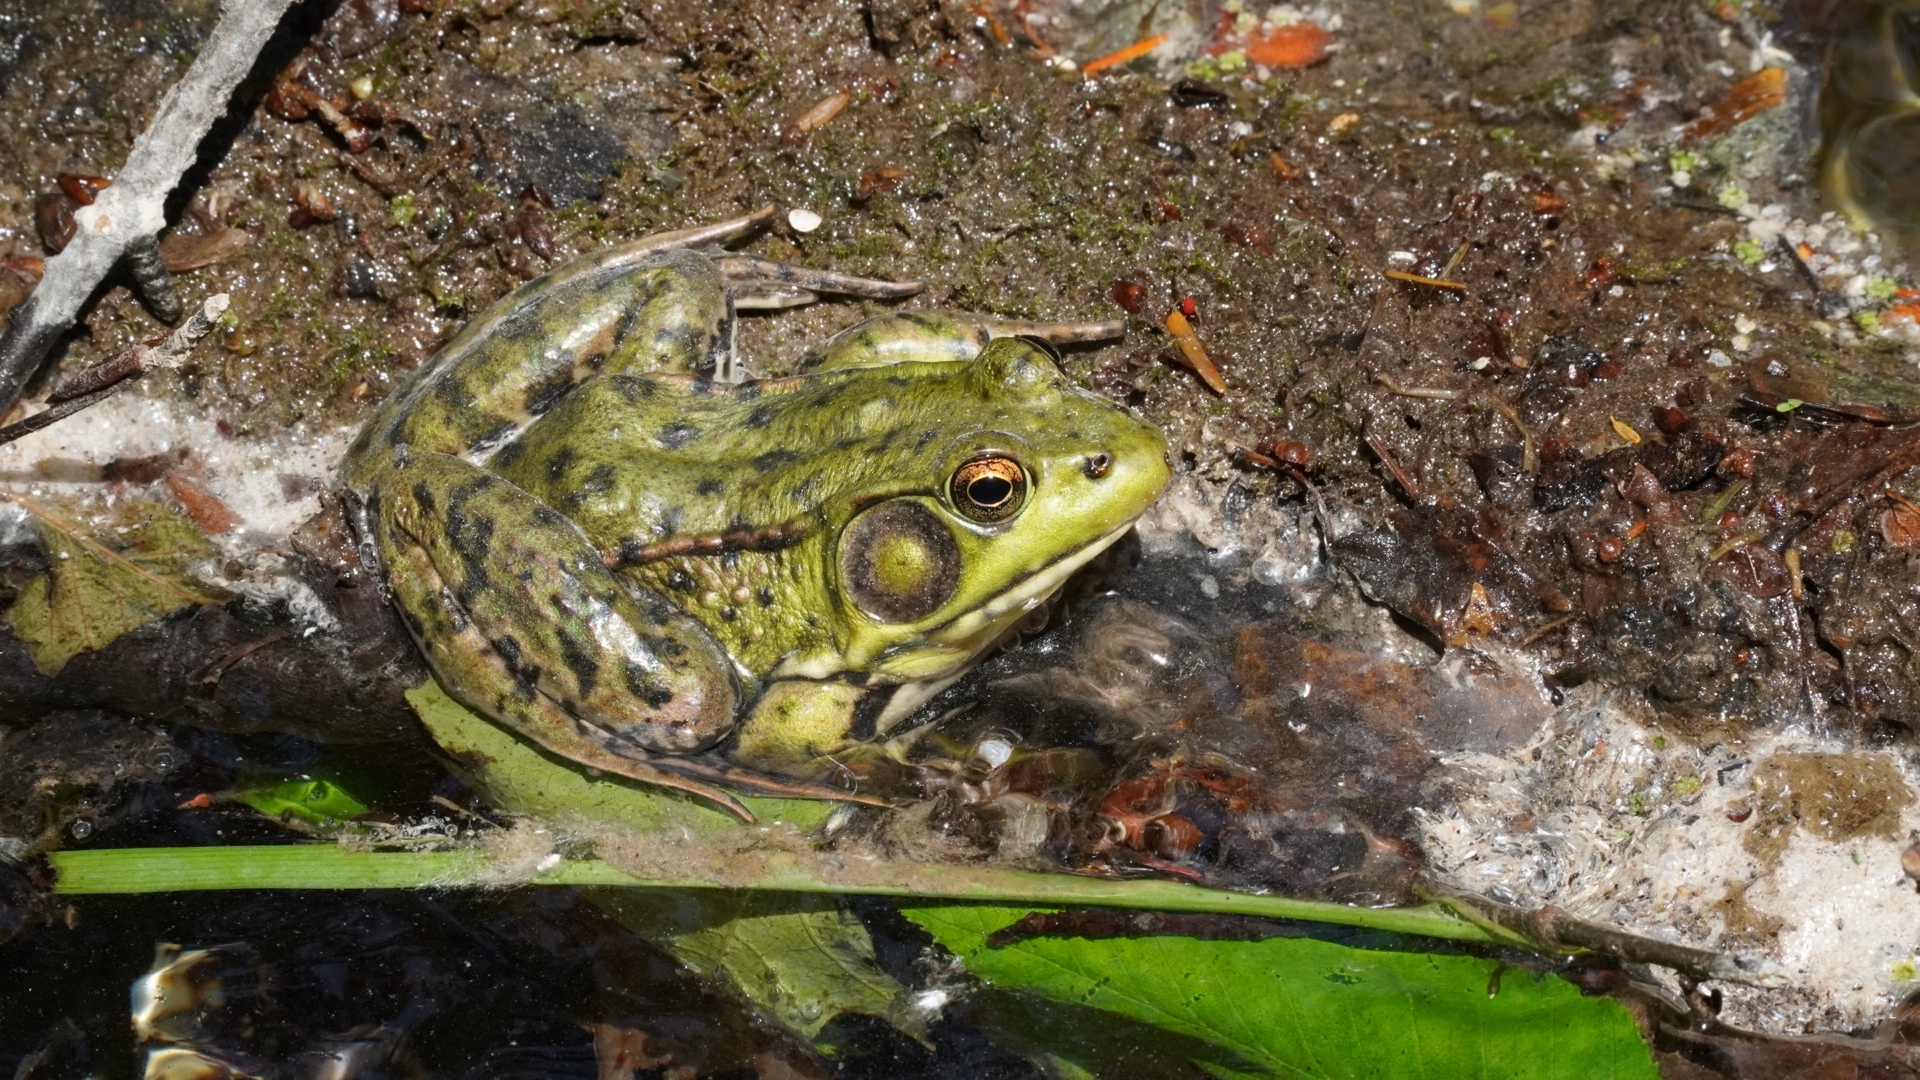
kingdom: Animalia
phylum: Chordata
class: Amphibia
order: Anura
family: Ranidae
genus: Lithobates
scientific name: Lithobates clamitans
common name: Green frog
